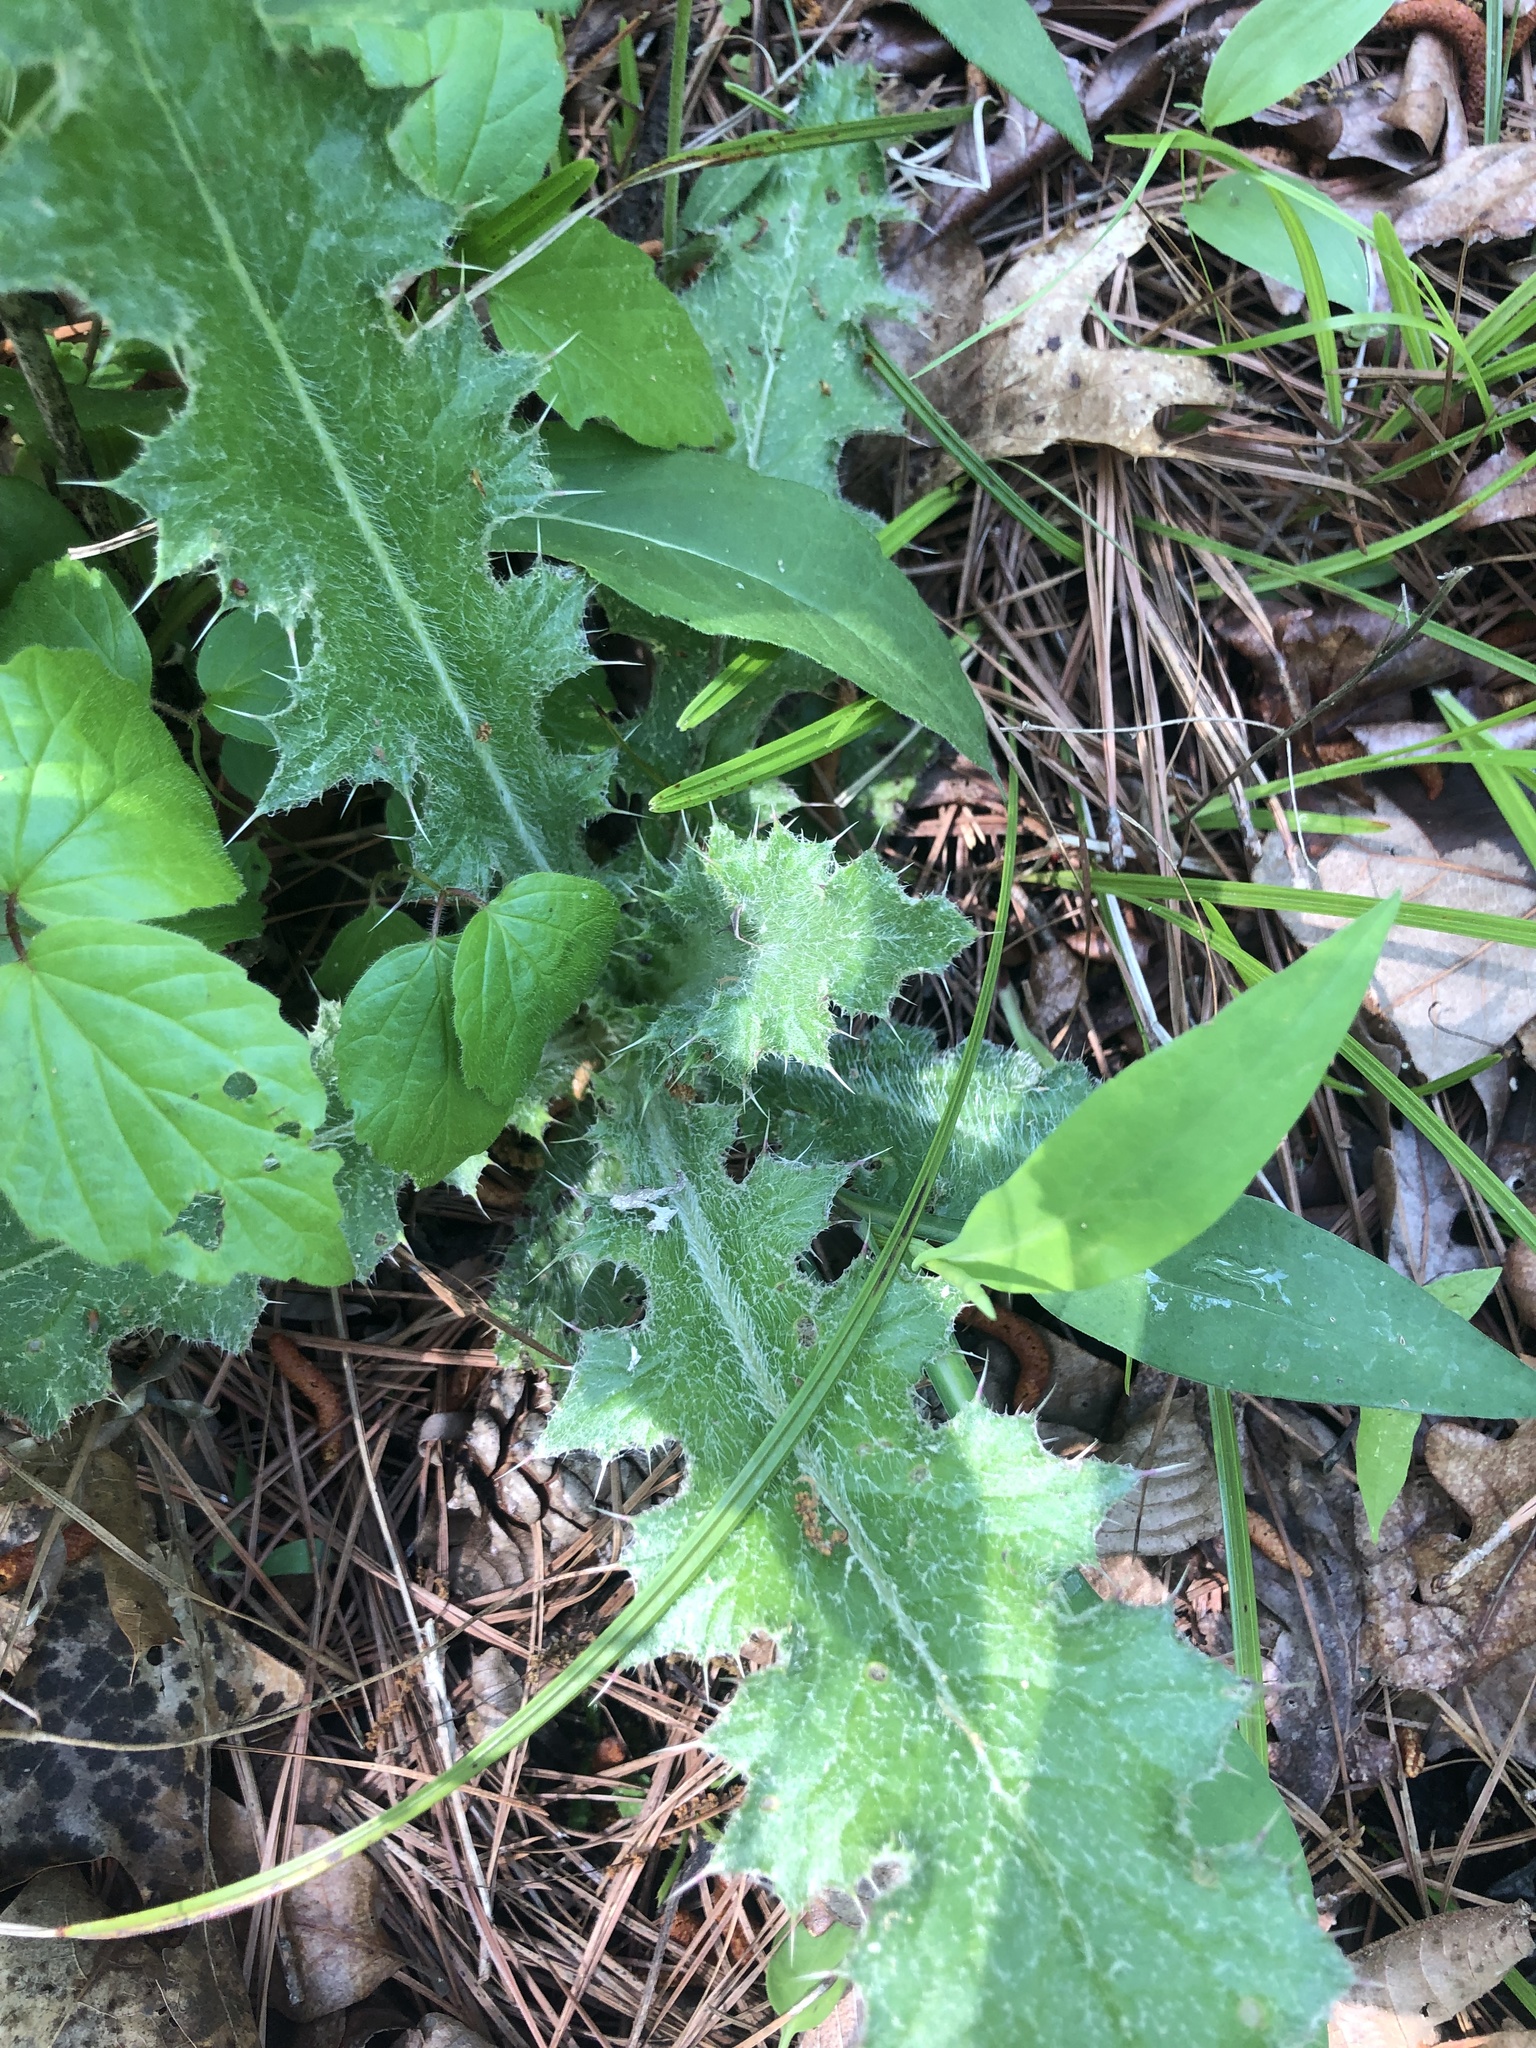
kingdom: Plantae
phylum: Tracheophyta
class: Magnoliopsida
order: Asterales
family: Asteraceae
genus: Cirsium
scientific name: Cirsium vulgare
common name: Bull thistle
